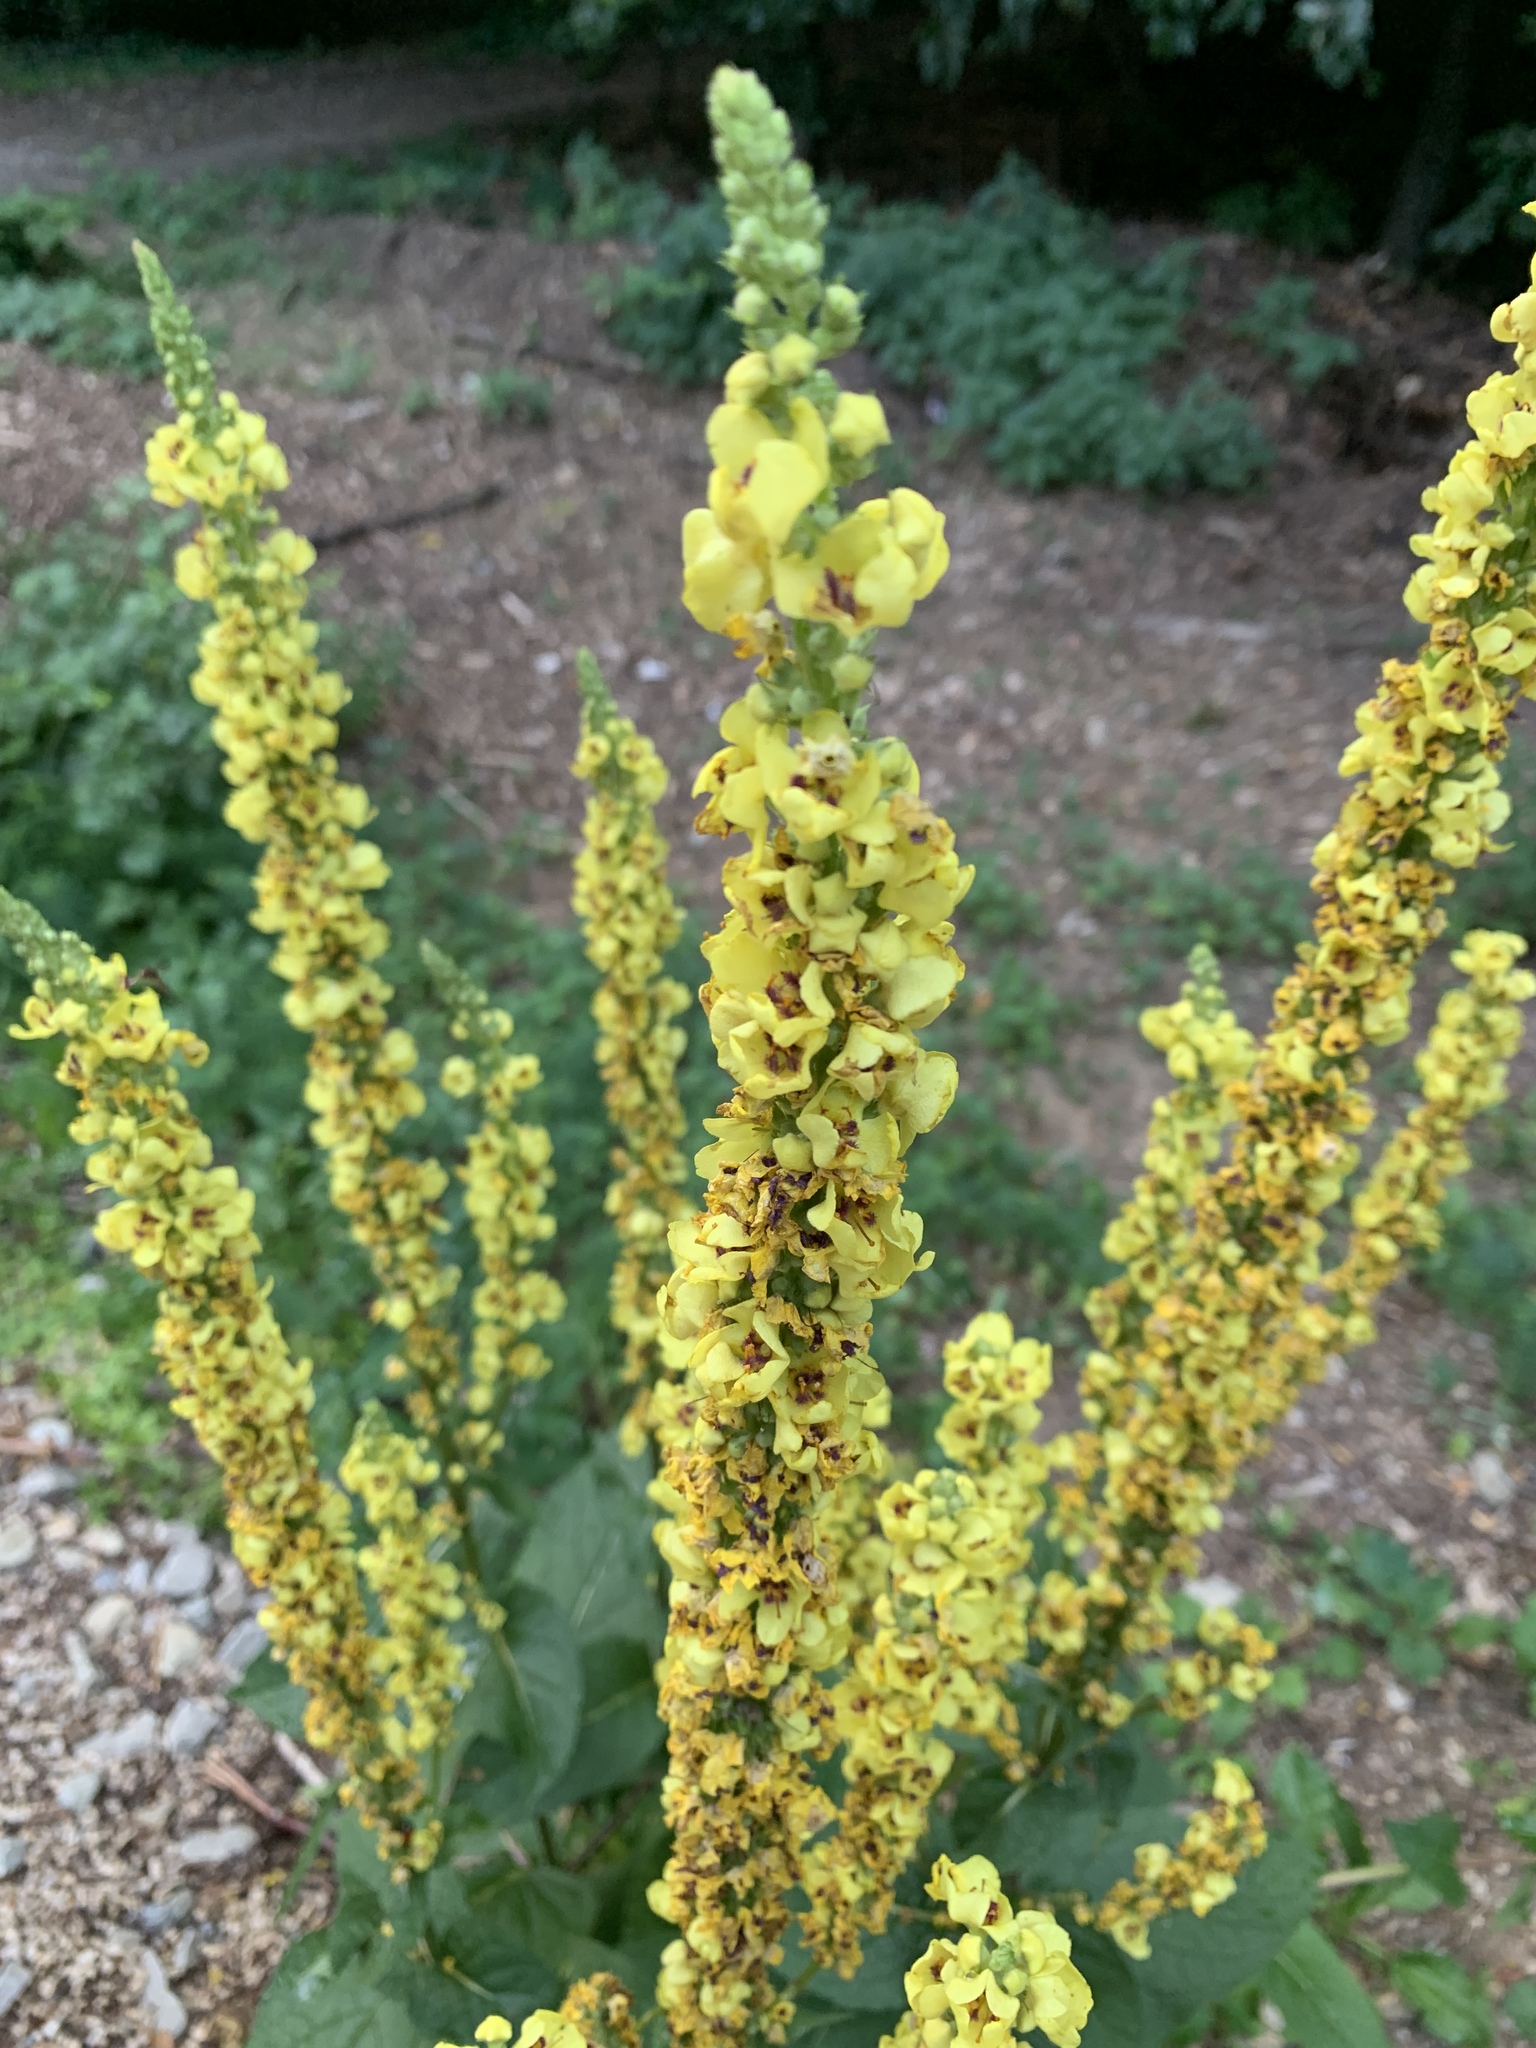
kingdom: Plantae
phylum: Tracheophyta
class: Magnoliopsida
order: Lamiales
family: Scrophulariaceae
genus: Verbascum
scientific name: Verbascum nigrum
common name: Dark mullein
